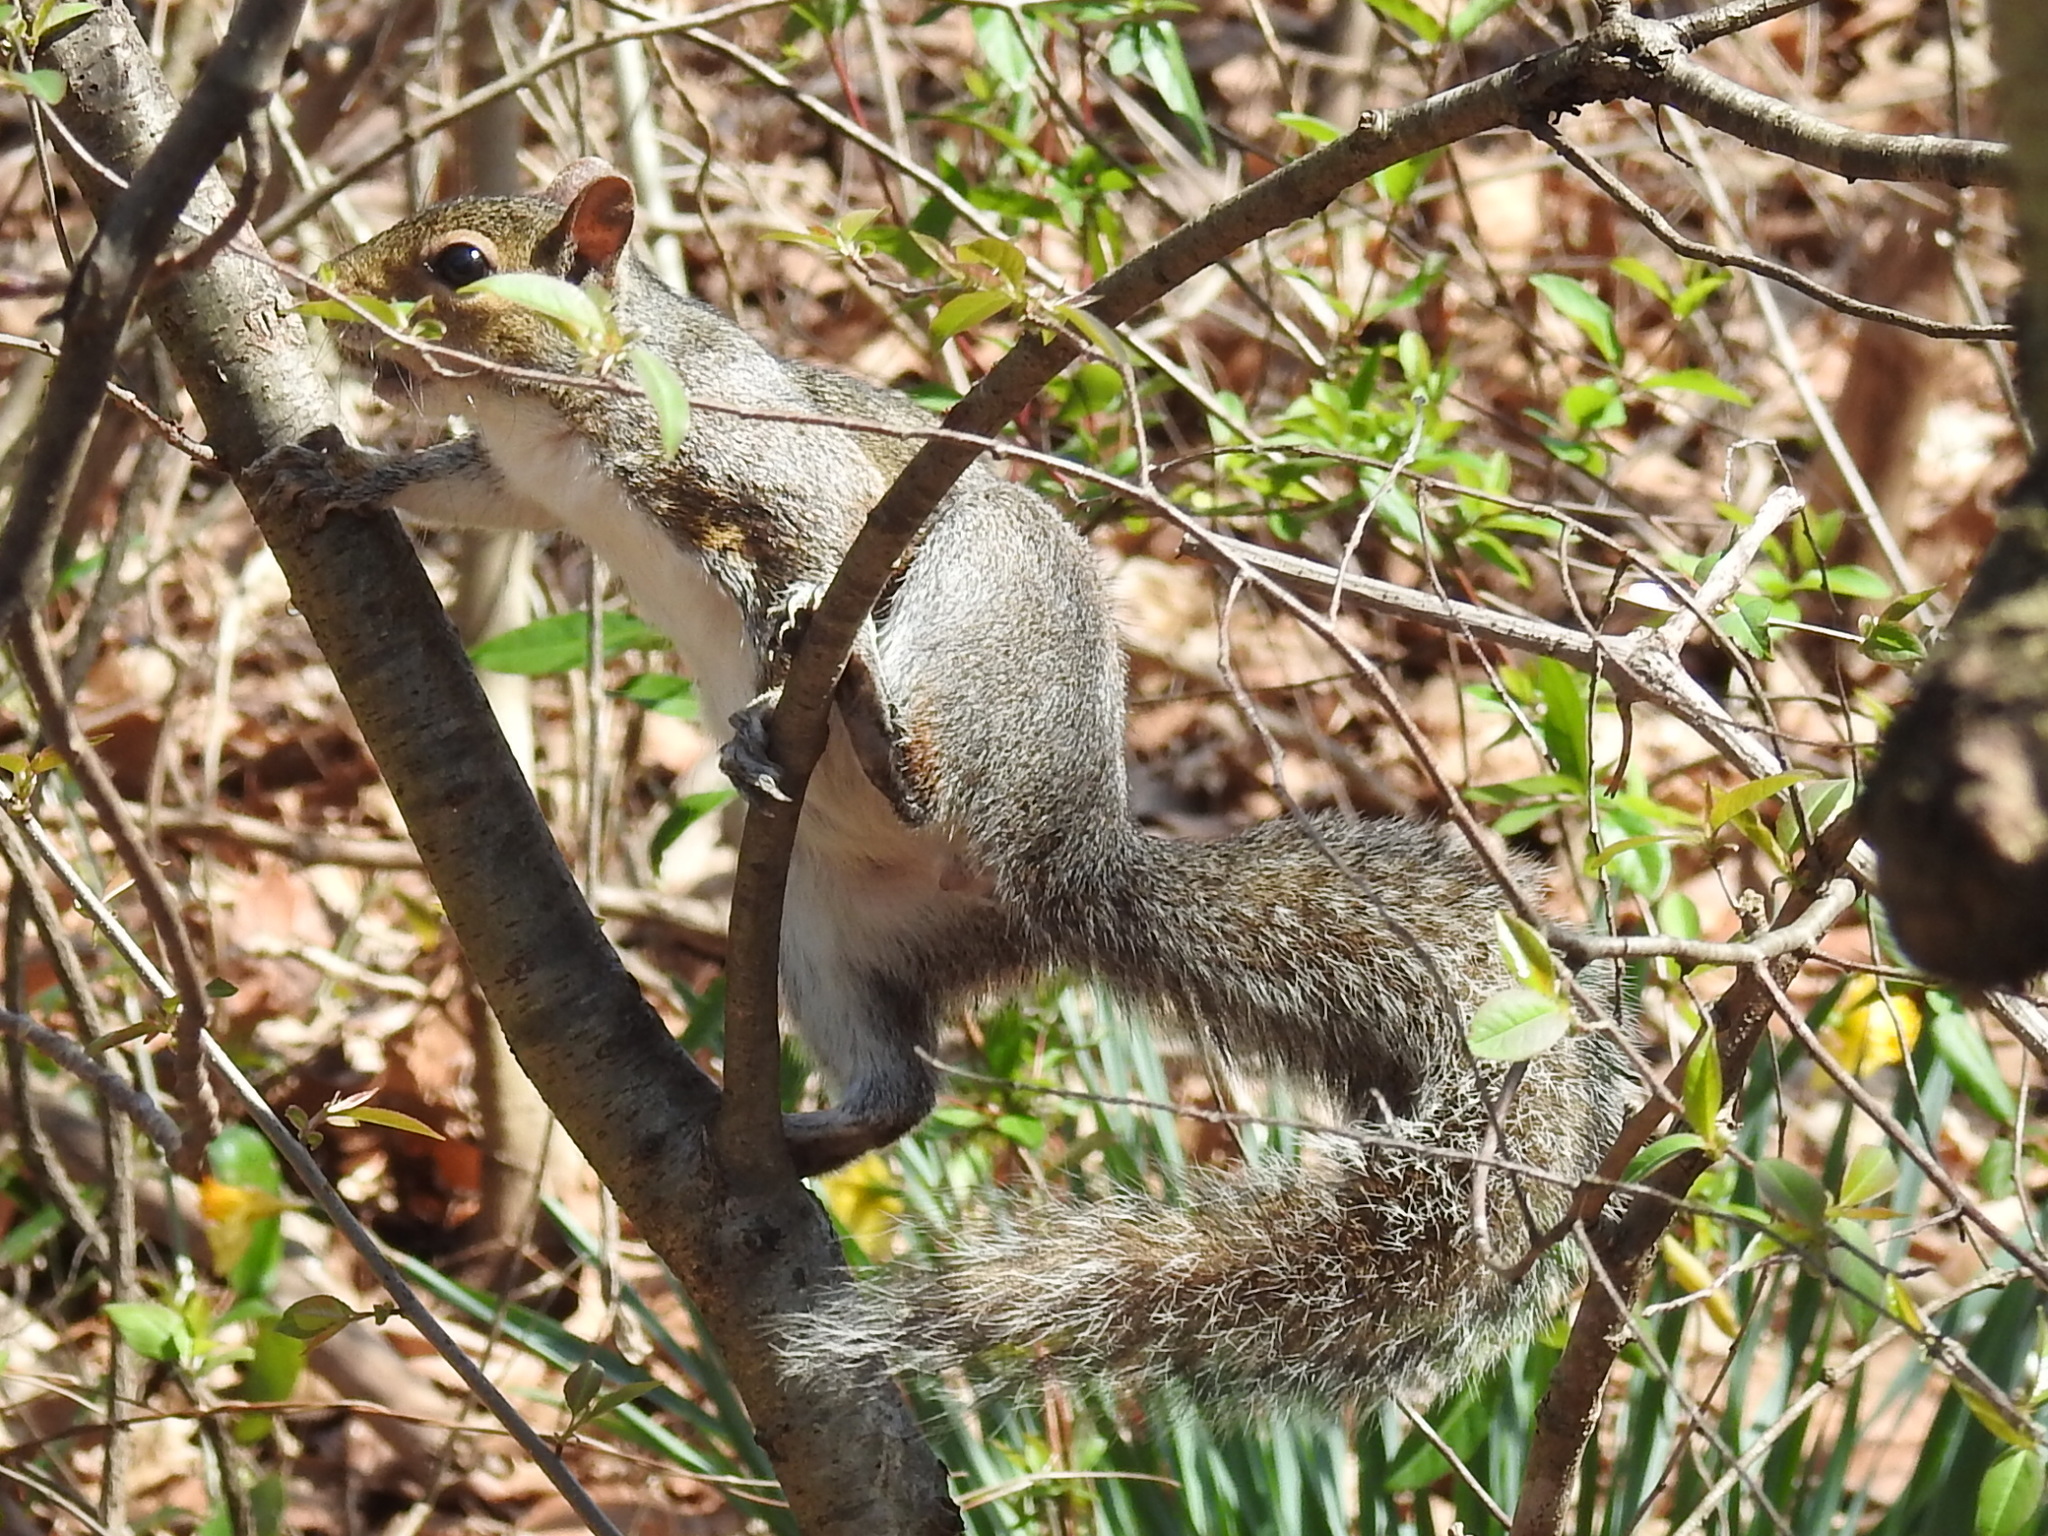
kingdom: Animalia
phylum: Chordata
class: Mammalia
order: Rodentia
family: Sciuridae
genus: Sciurus
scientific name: Sciurus carolinensis
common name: Eastern gray squirrel
